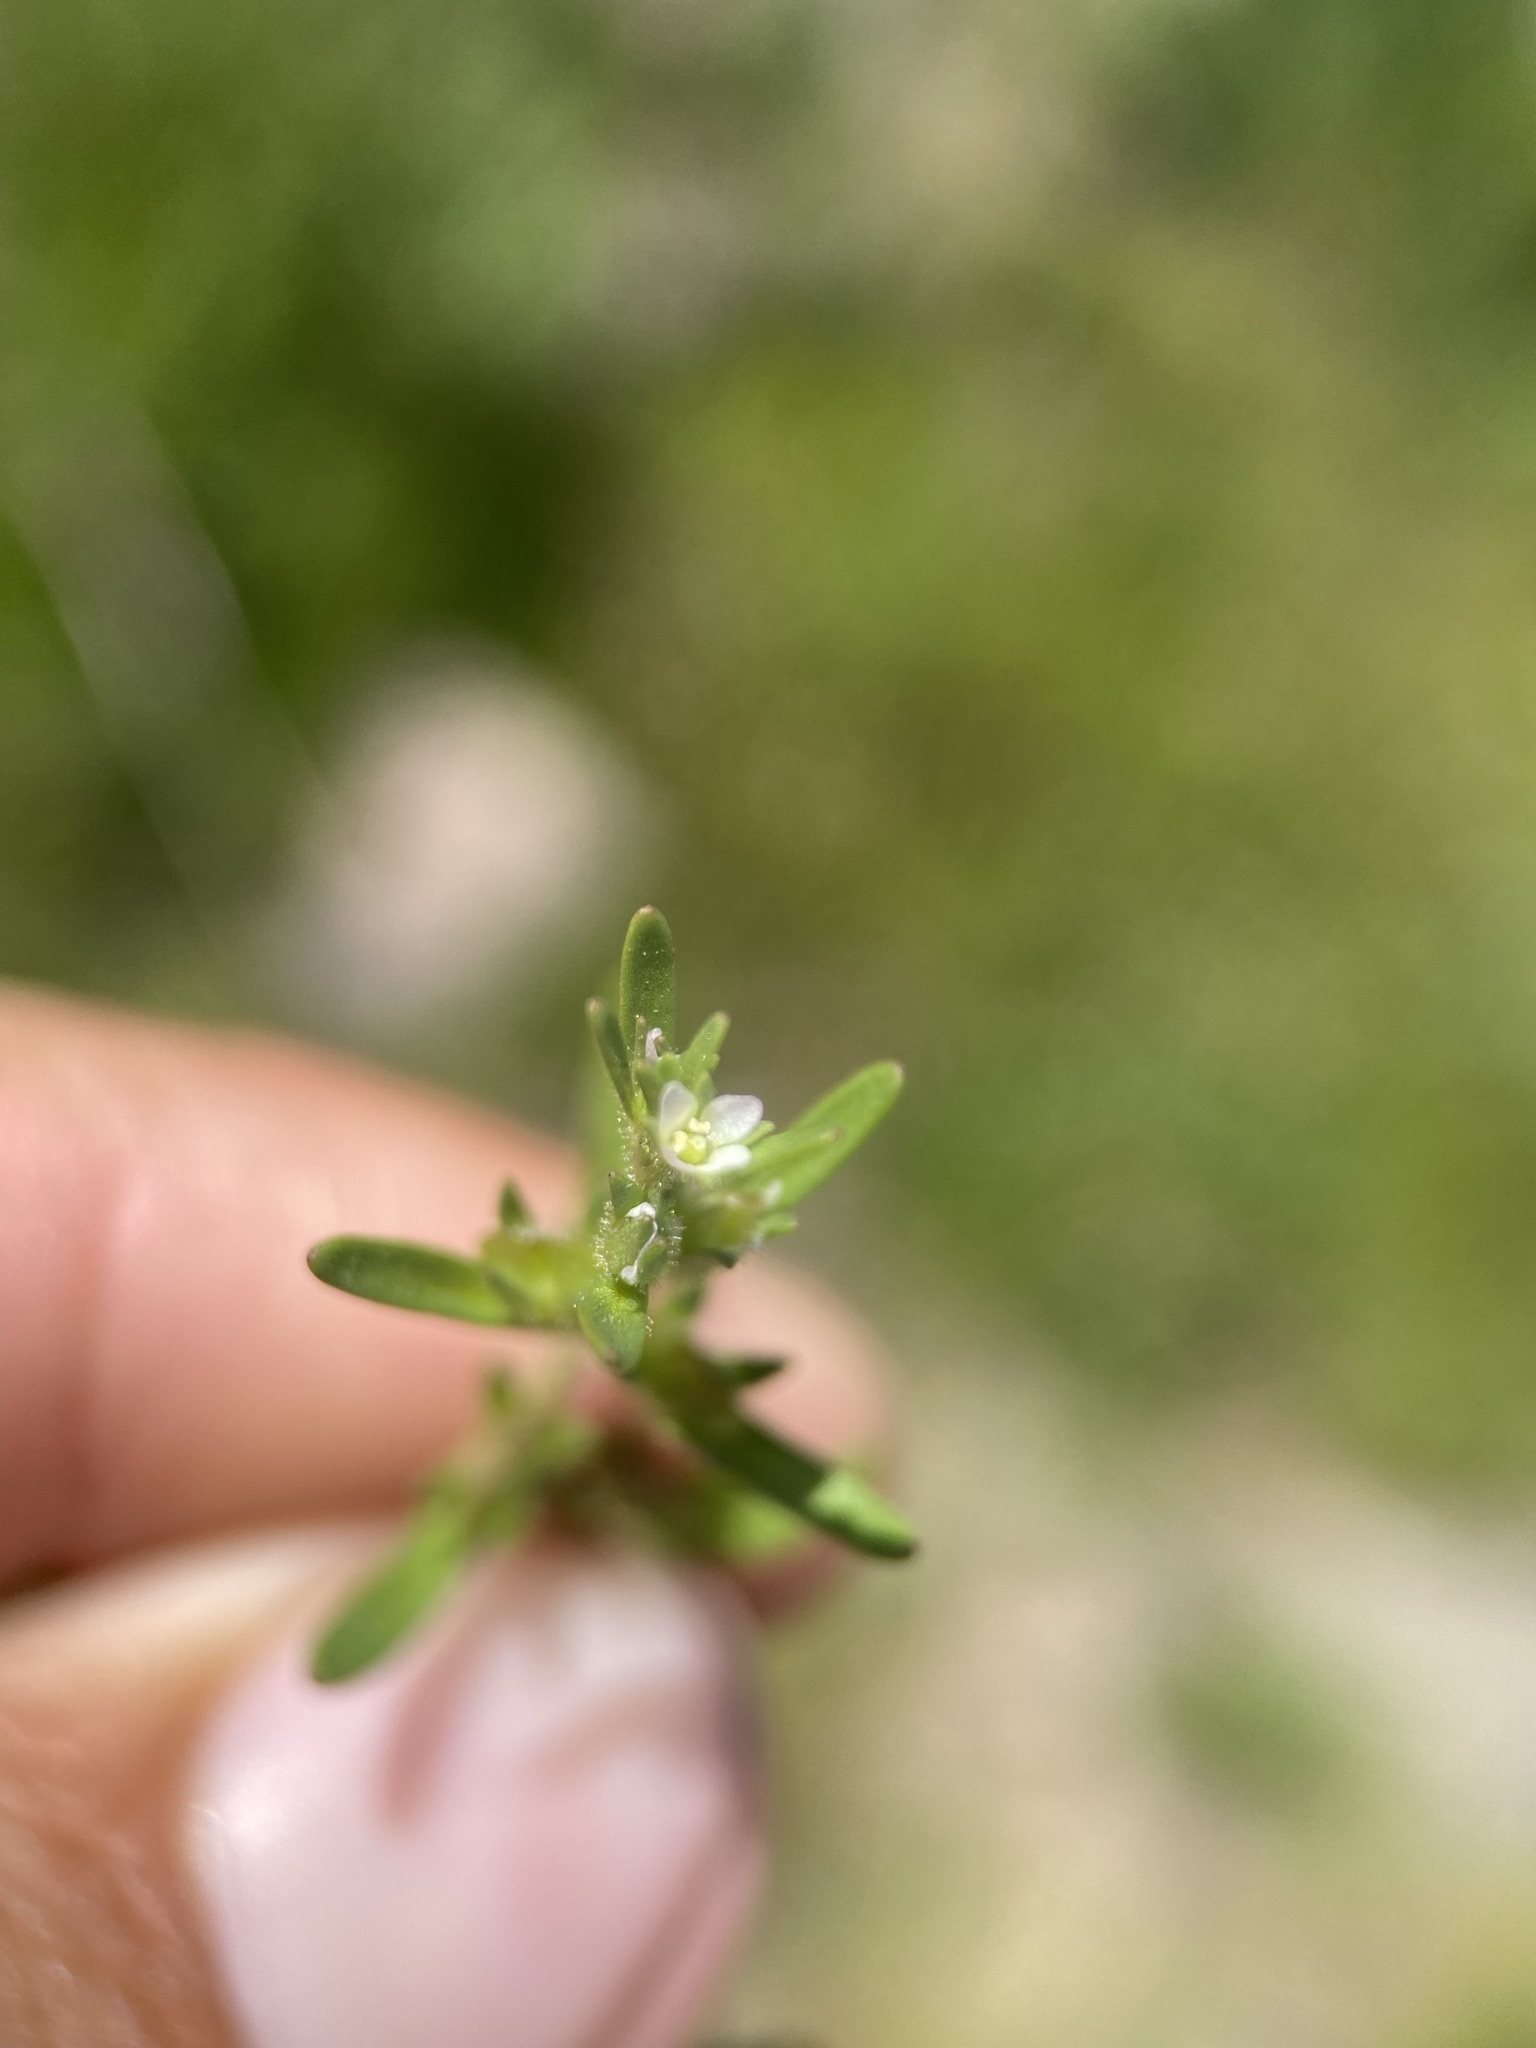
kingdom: Plantae
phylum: Tracheophyta
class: Magnoliopsida
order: Lamiales
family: Plantaginaceae
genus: Veronica
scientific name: Veronica peregrina
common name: Neckweed
